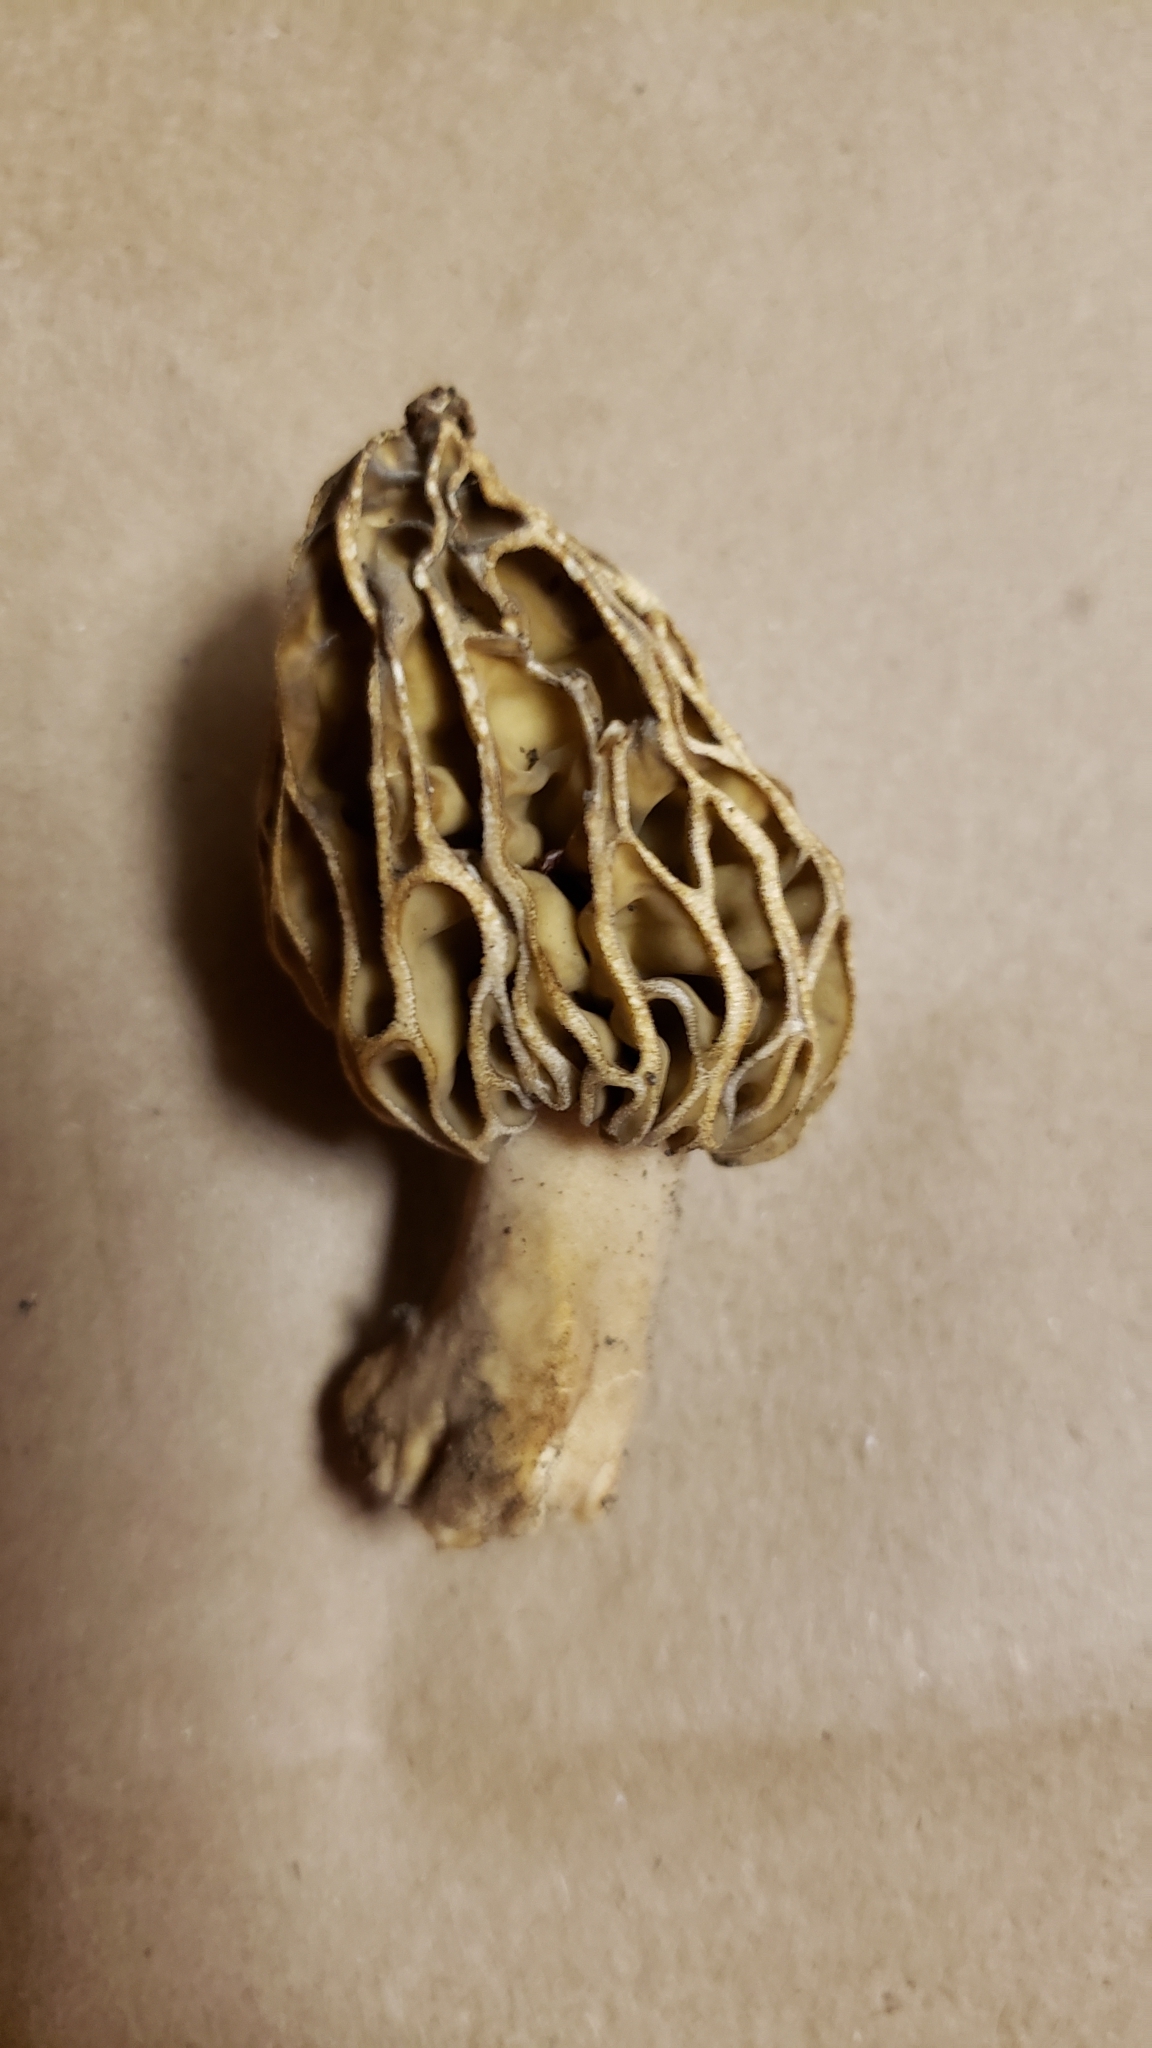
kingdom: Fungi
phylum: Ascomycota
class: Pezizomycetes
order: Pezizales
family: Morchellaceae
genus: Morchella
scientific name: Morchella rufobrunnea
